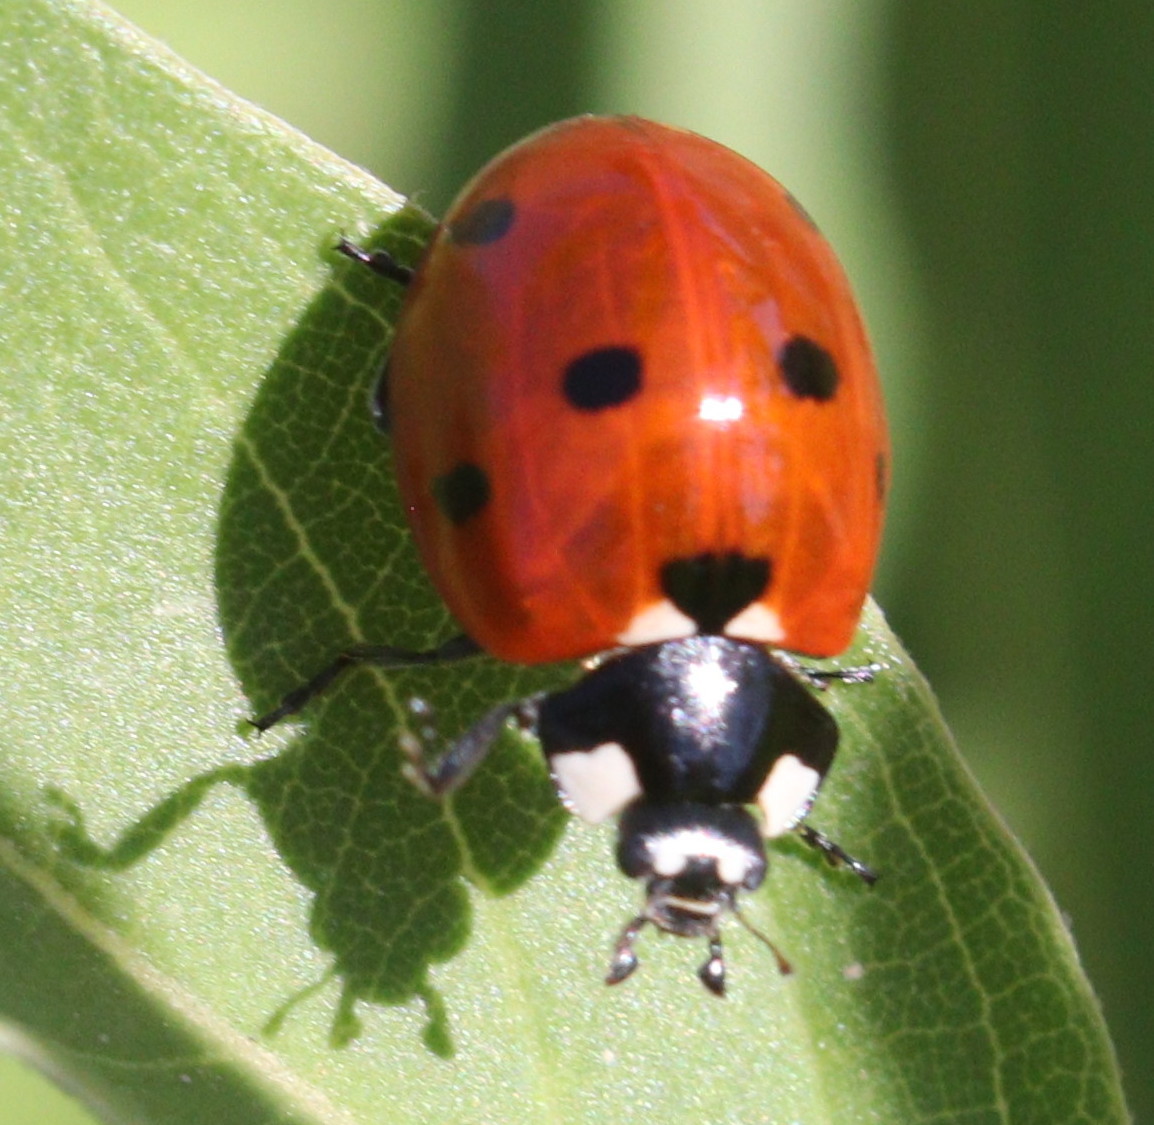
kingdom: Animalia
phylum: Arthropoda
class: Insecta
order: Coleoptera
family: Coccinellidae
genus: Coccinella
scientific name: Coccinella septempunctata
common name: Sevenspotted lady beetle
